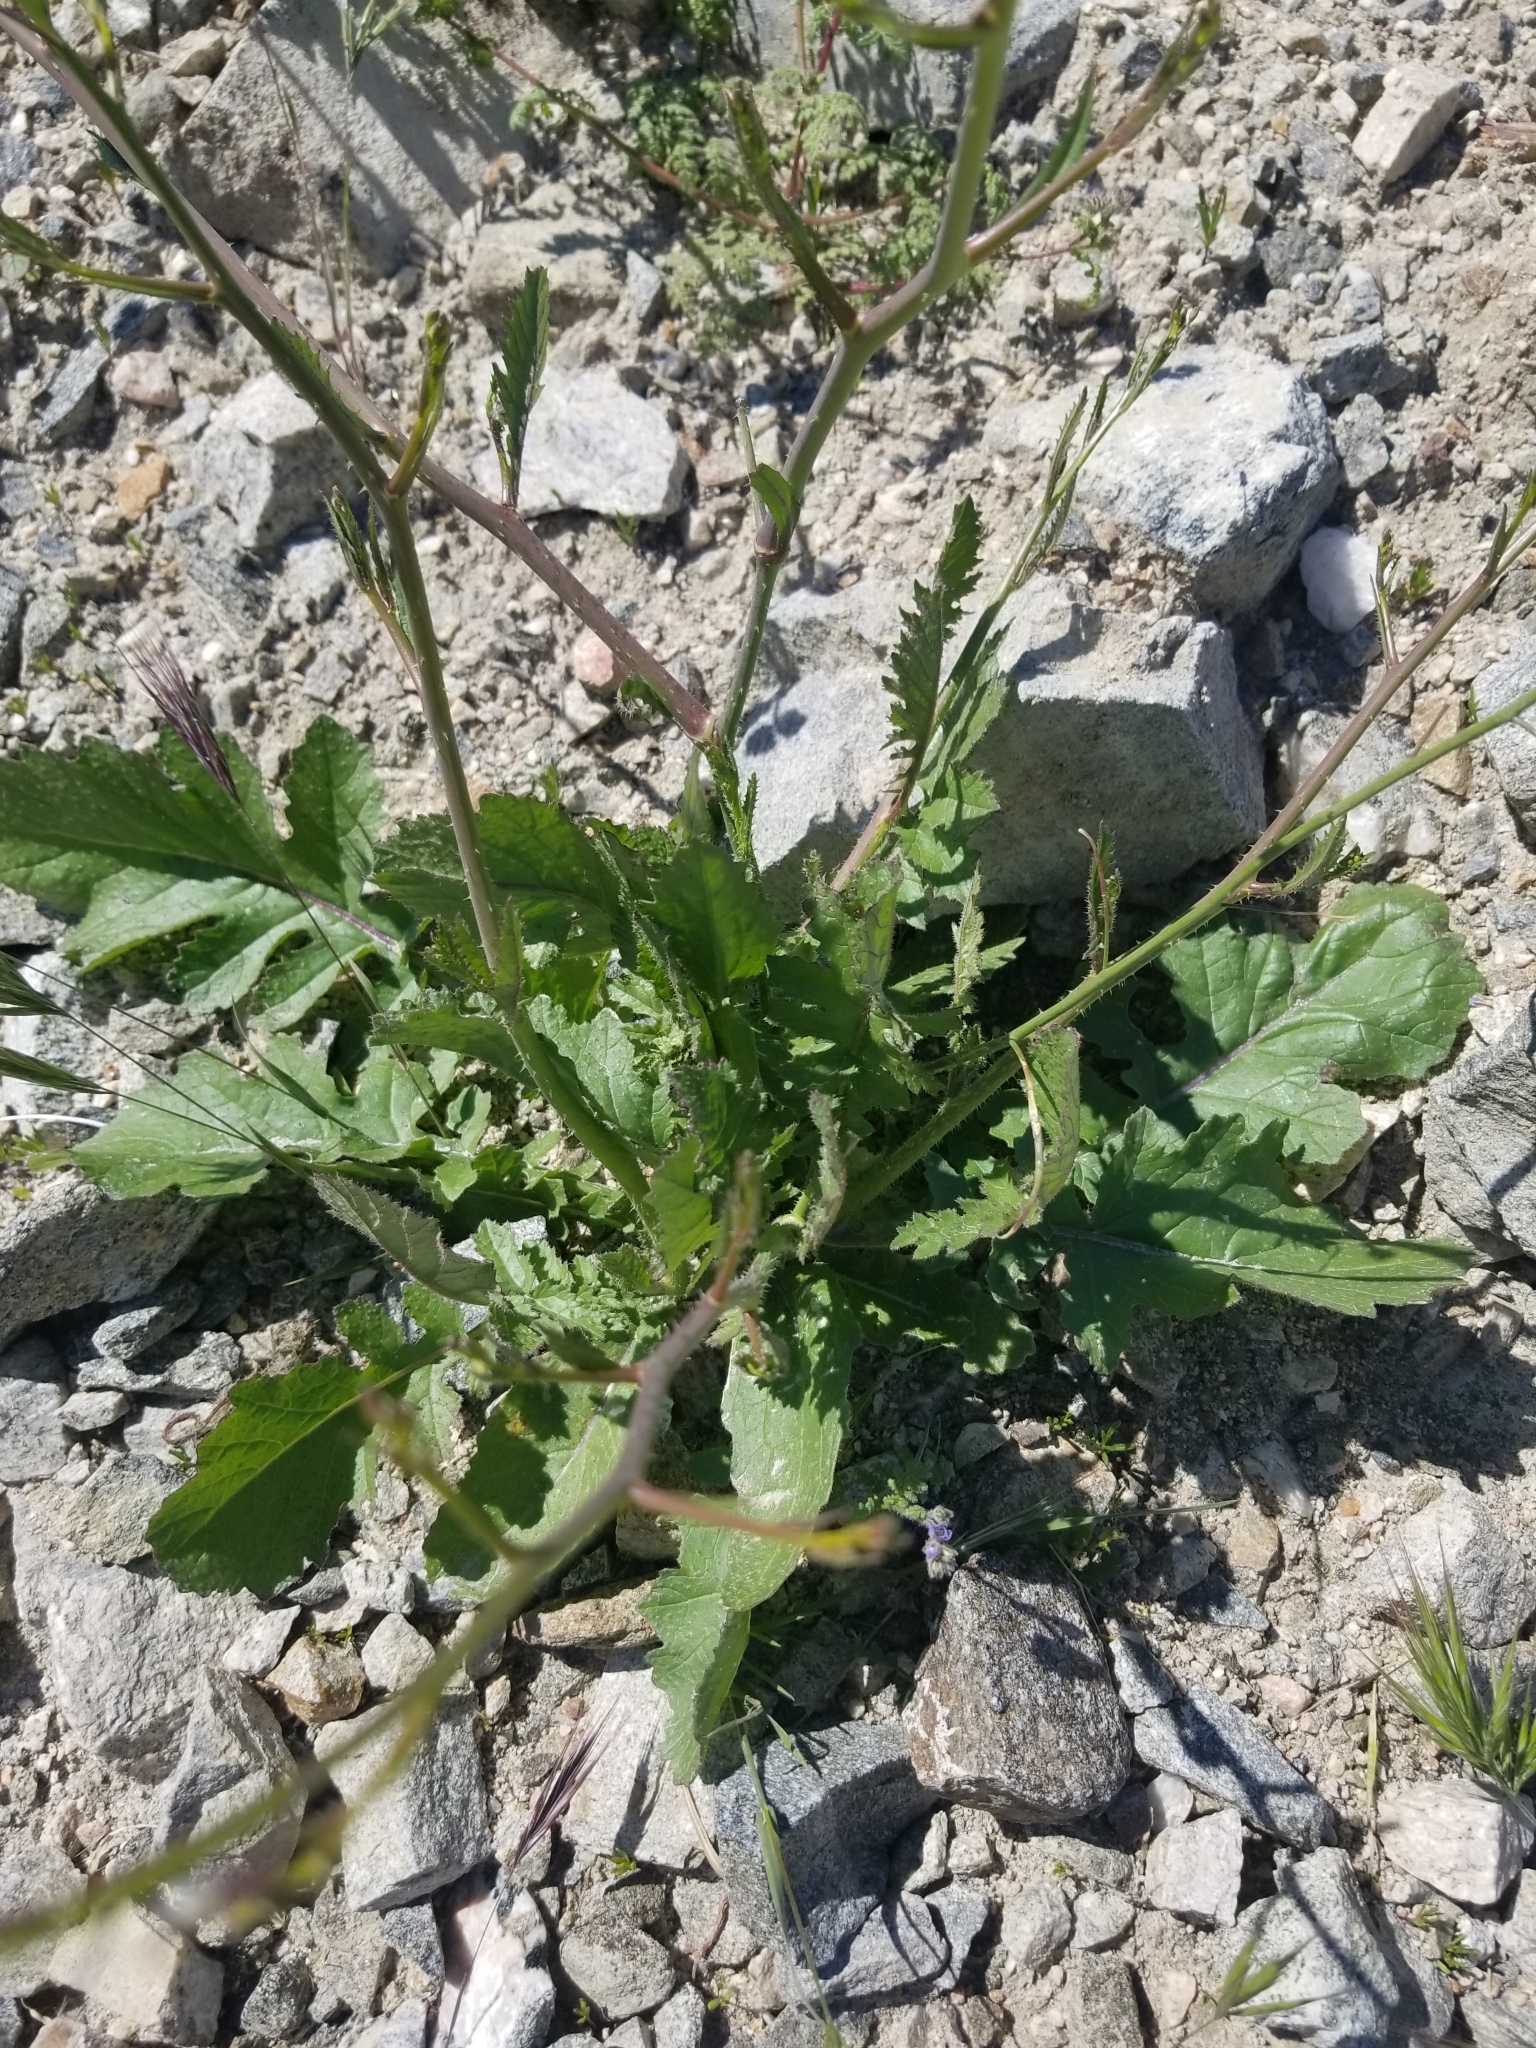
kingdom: Plantae
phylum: Tracheophyta
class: Magnoliopsida
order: Brassicales
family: Brassicaceae
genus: Brassica
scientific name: Brassica tournefortii
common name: Pale cabbage
